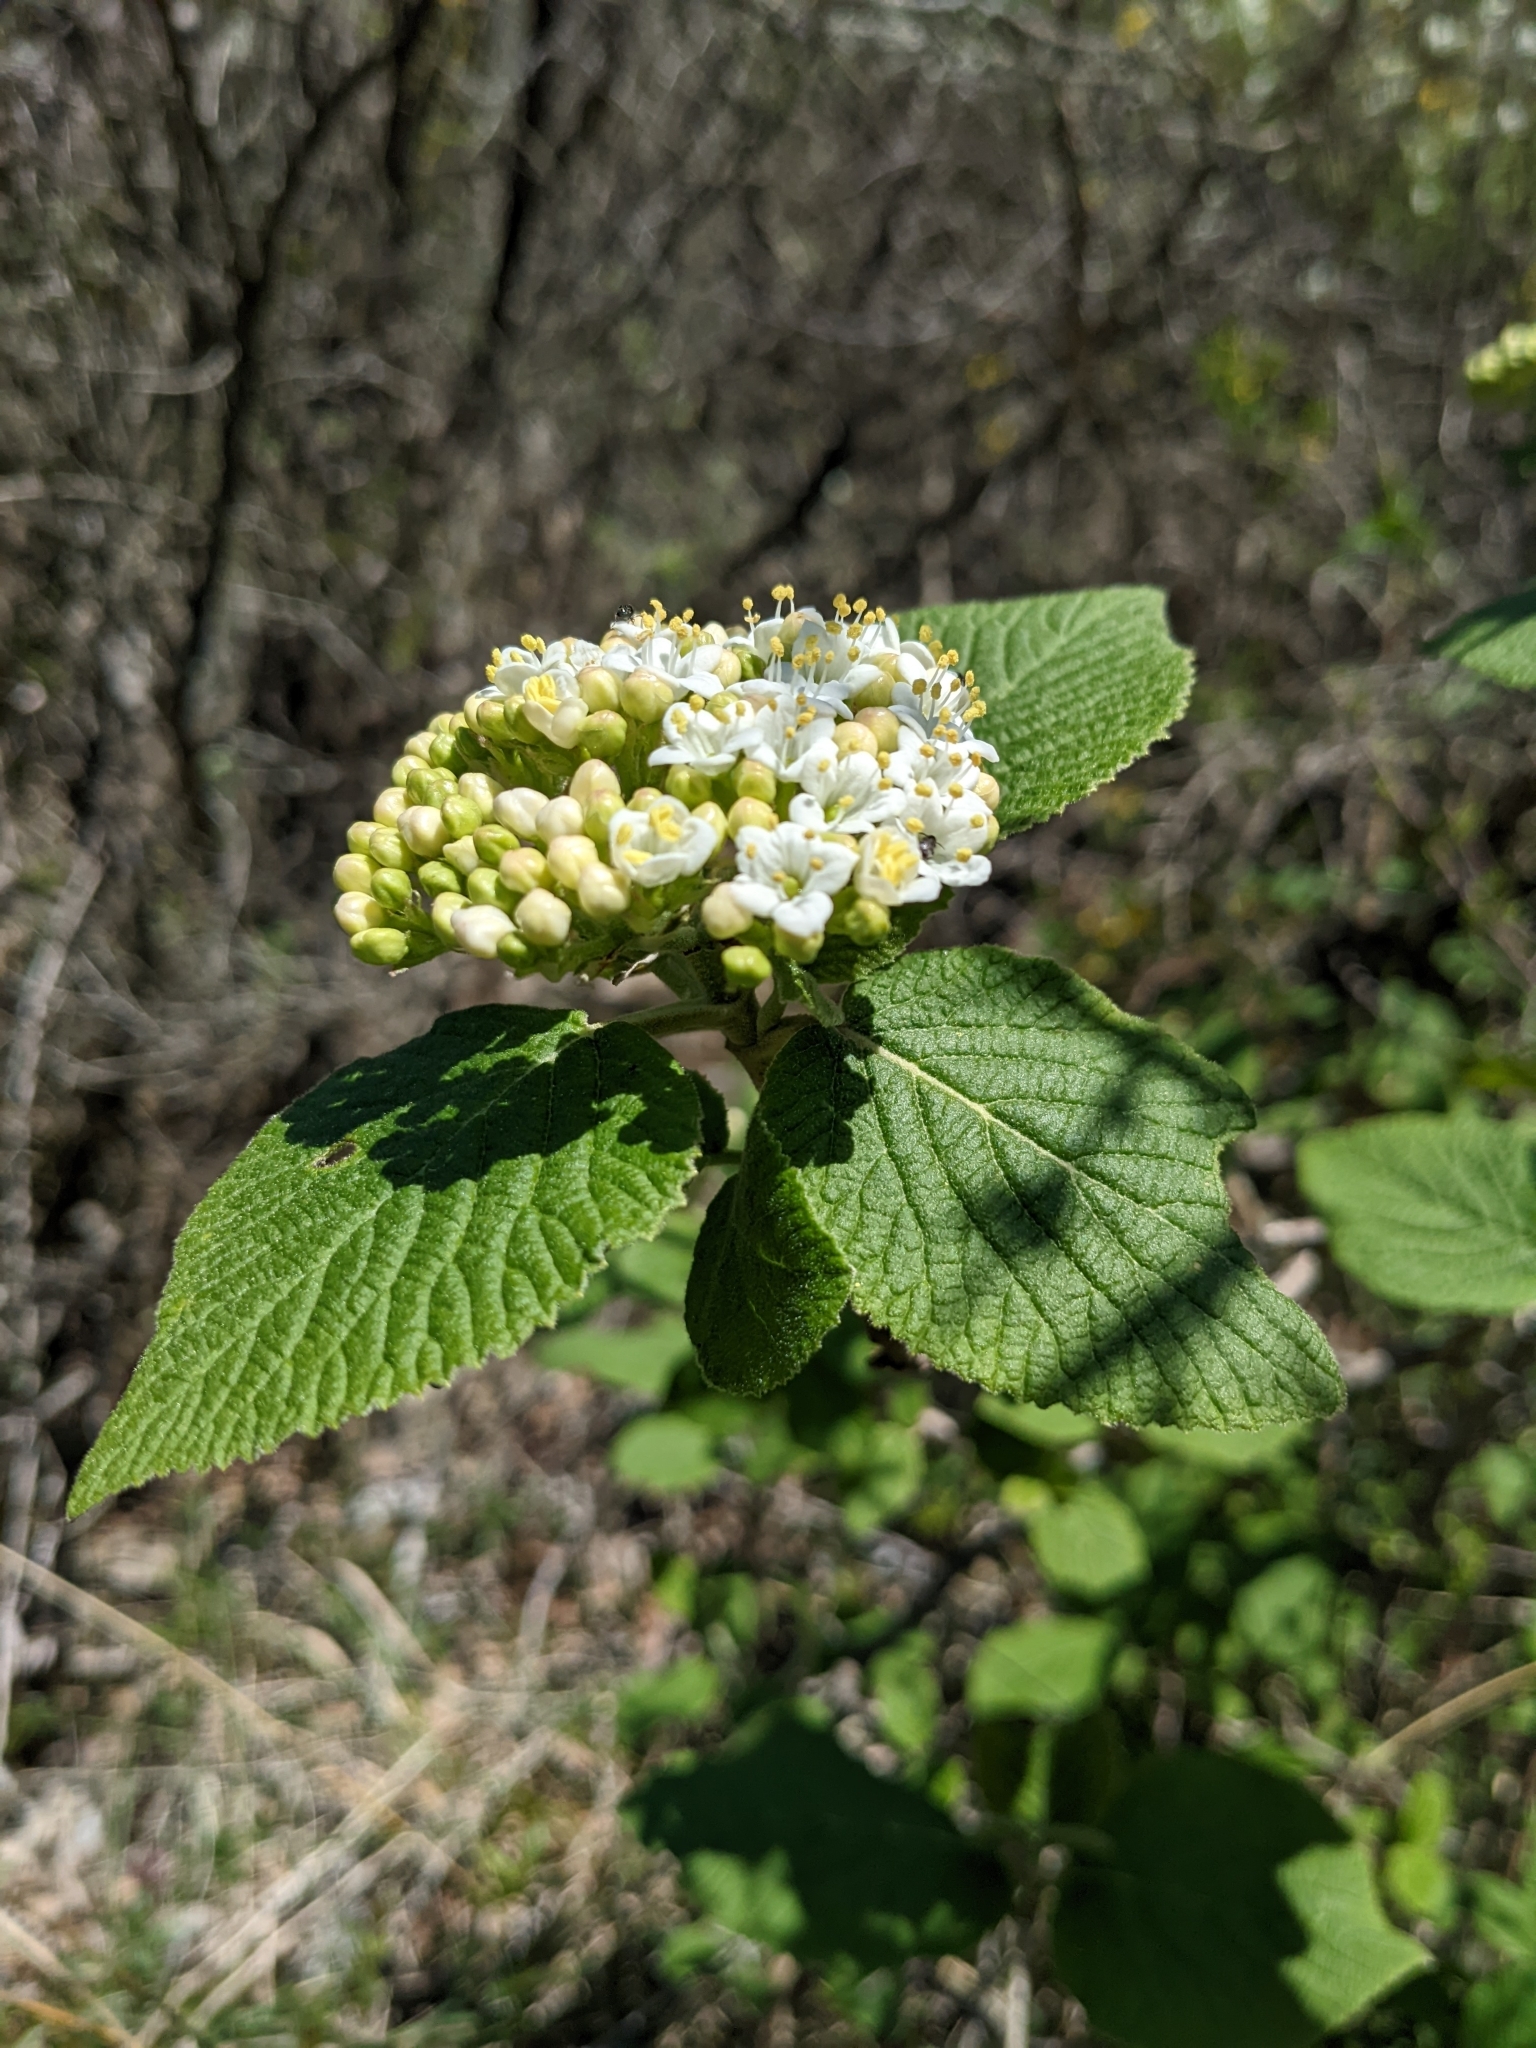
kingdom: Plantae
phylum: Tracheophyta
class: Magnoliopsida
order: Dipsacales
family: Viburnaceae
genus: Viburnum
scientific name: Viburnum lantana
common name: Wayfaring tree
